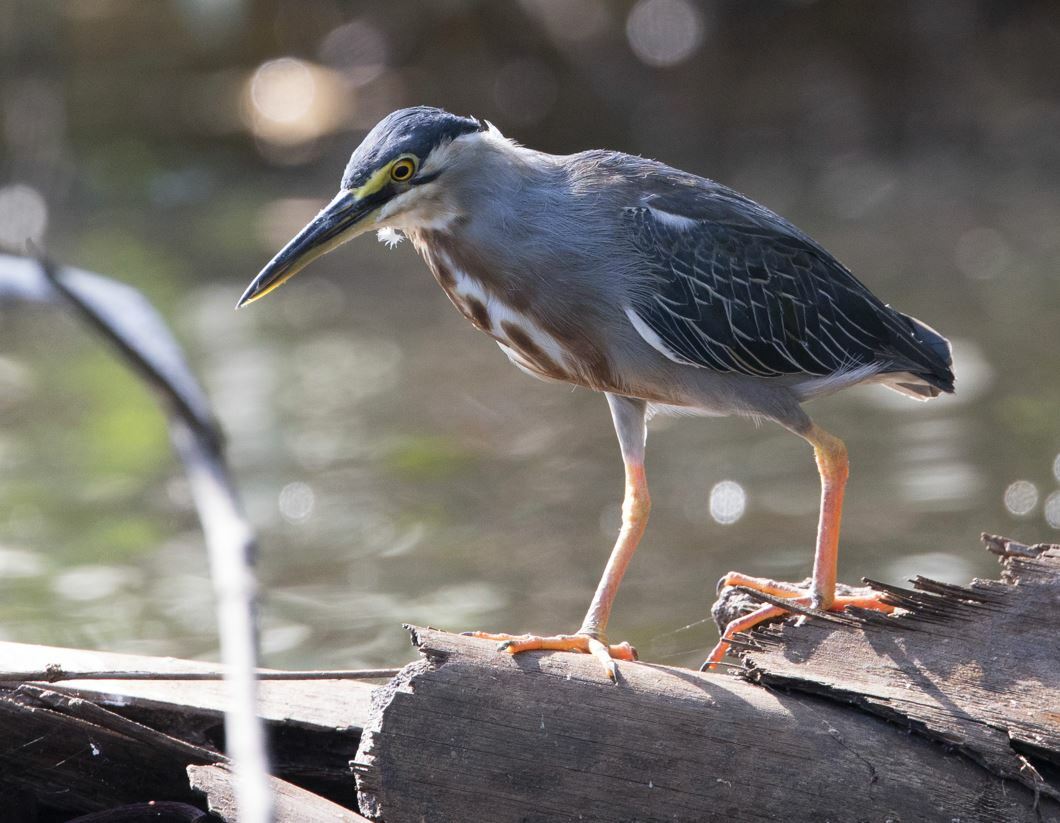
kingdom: Animalia
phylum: Chordata
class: Aves
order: Pelecaniformes
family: Ardeidae
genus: Butorides
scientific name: Butorides striata
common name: Striated heron
